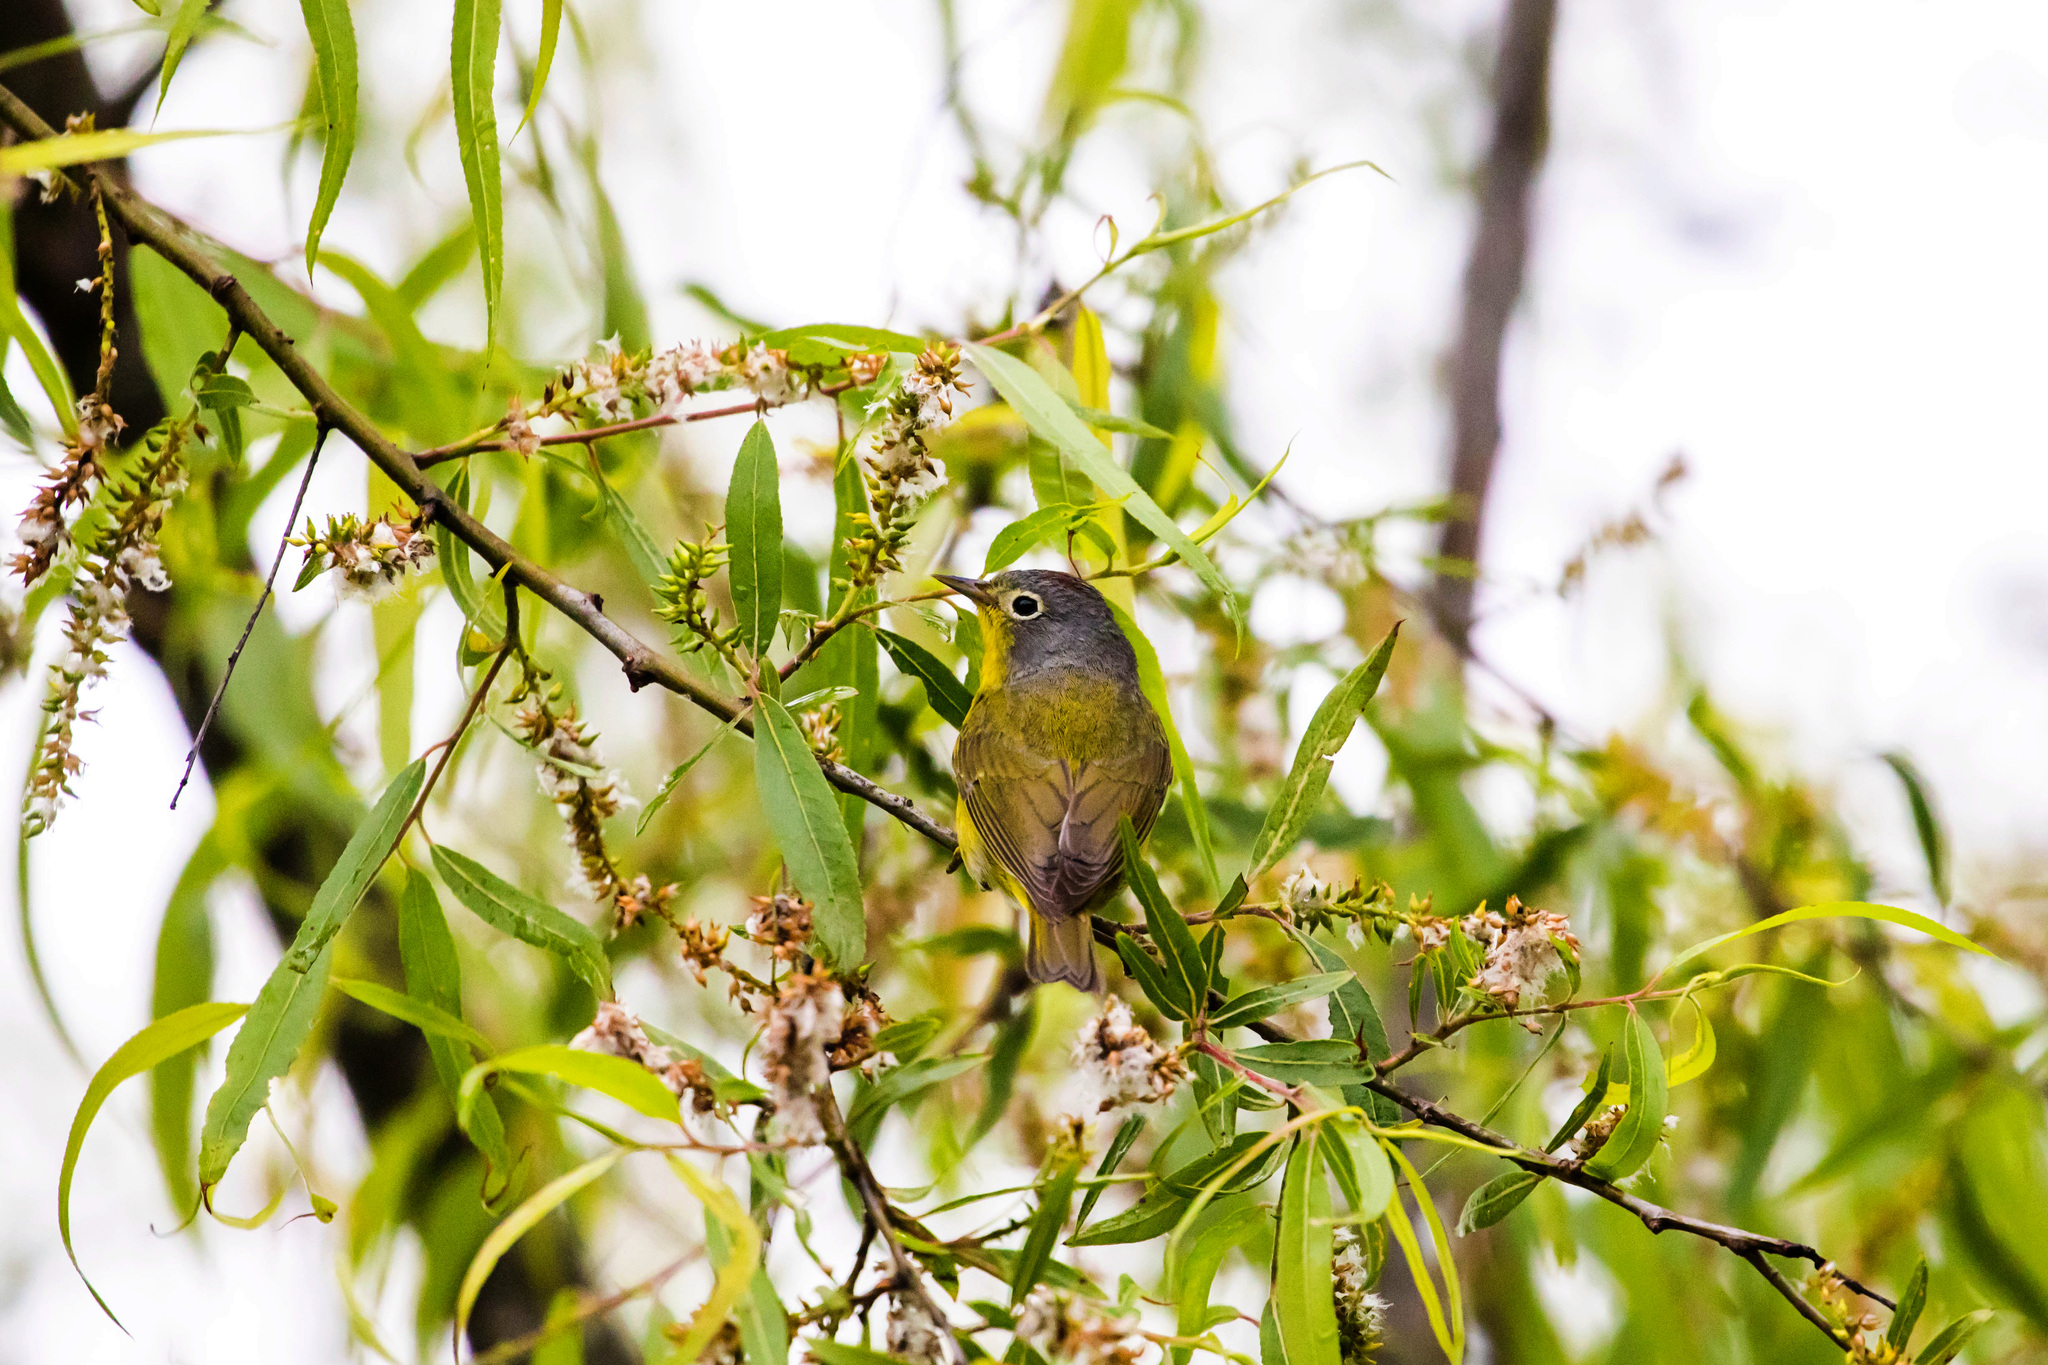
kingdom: Animalia
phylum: Chordata
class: Aves
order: Passeriformes
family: Parulidae
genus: Leiothlypis
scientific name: Leiothlypis ruficapilla
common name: Nashville warbler
